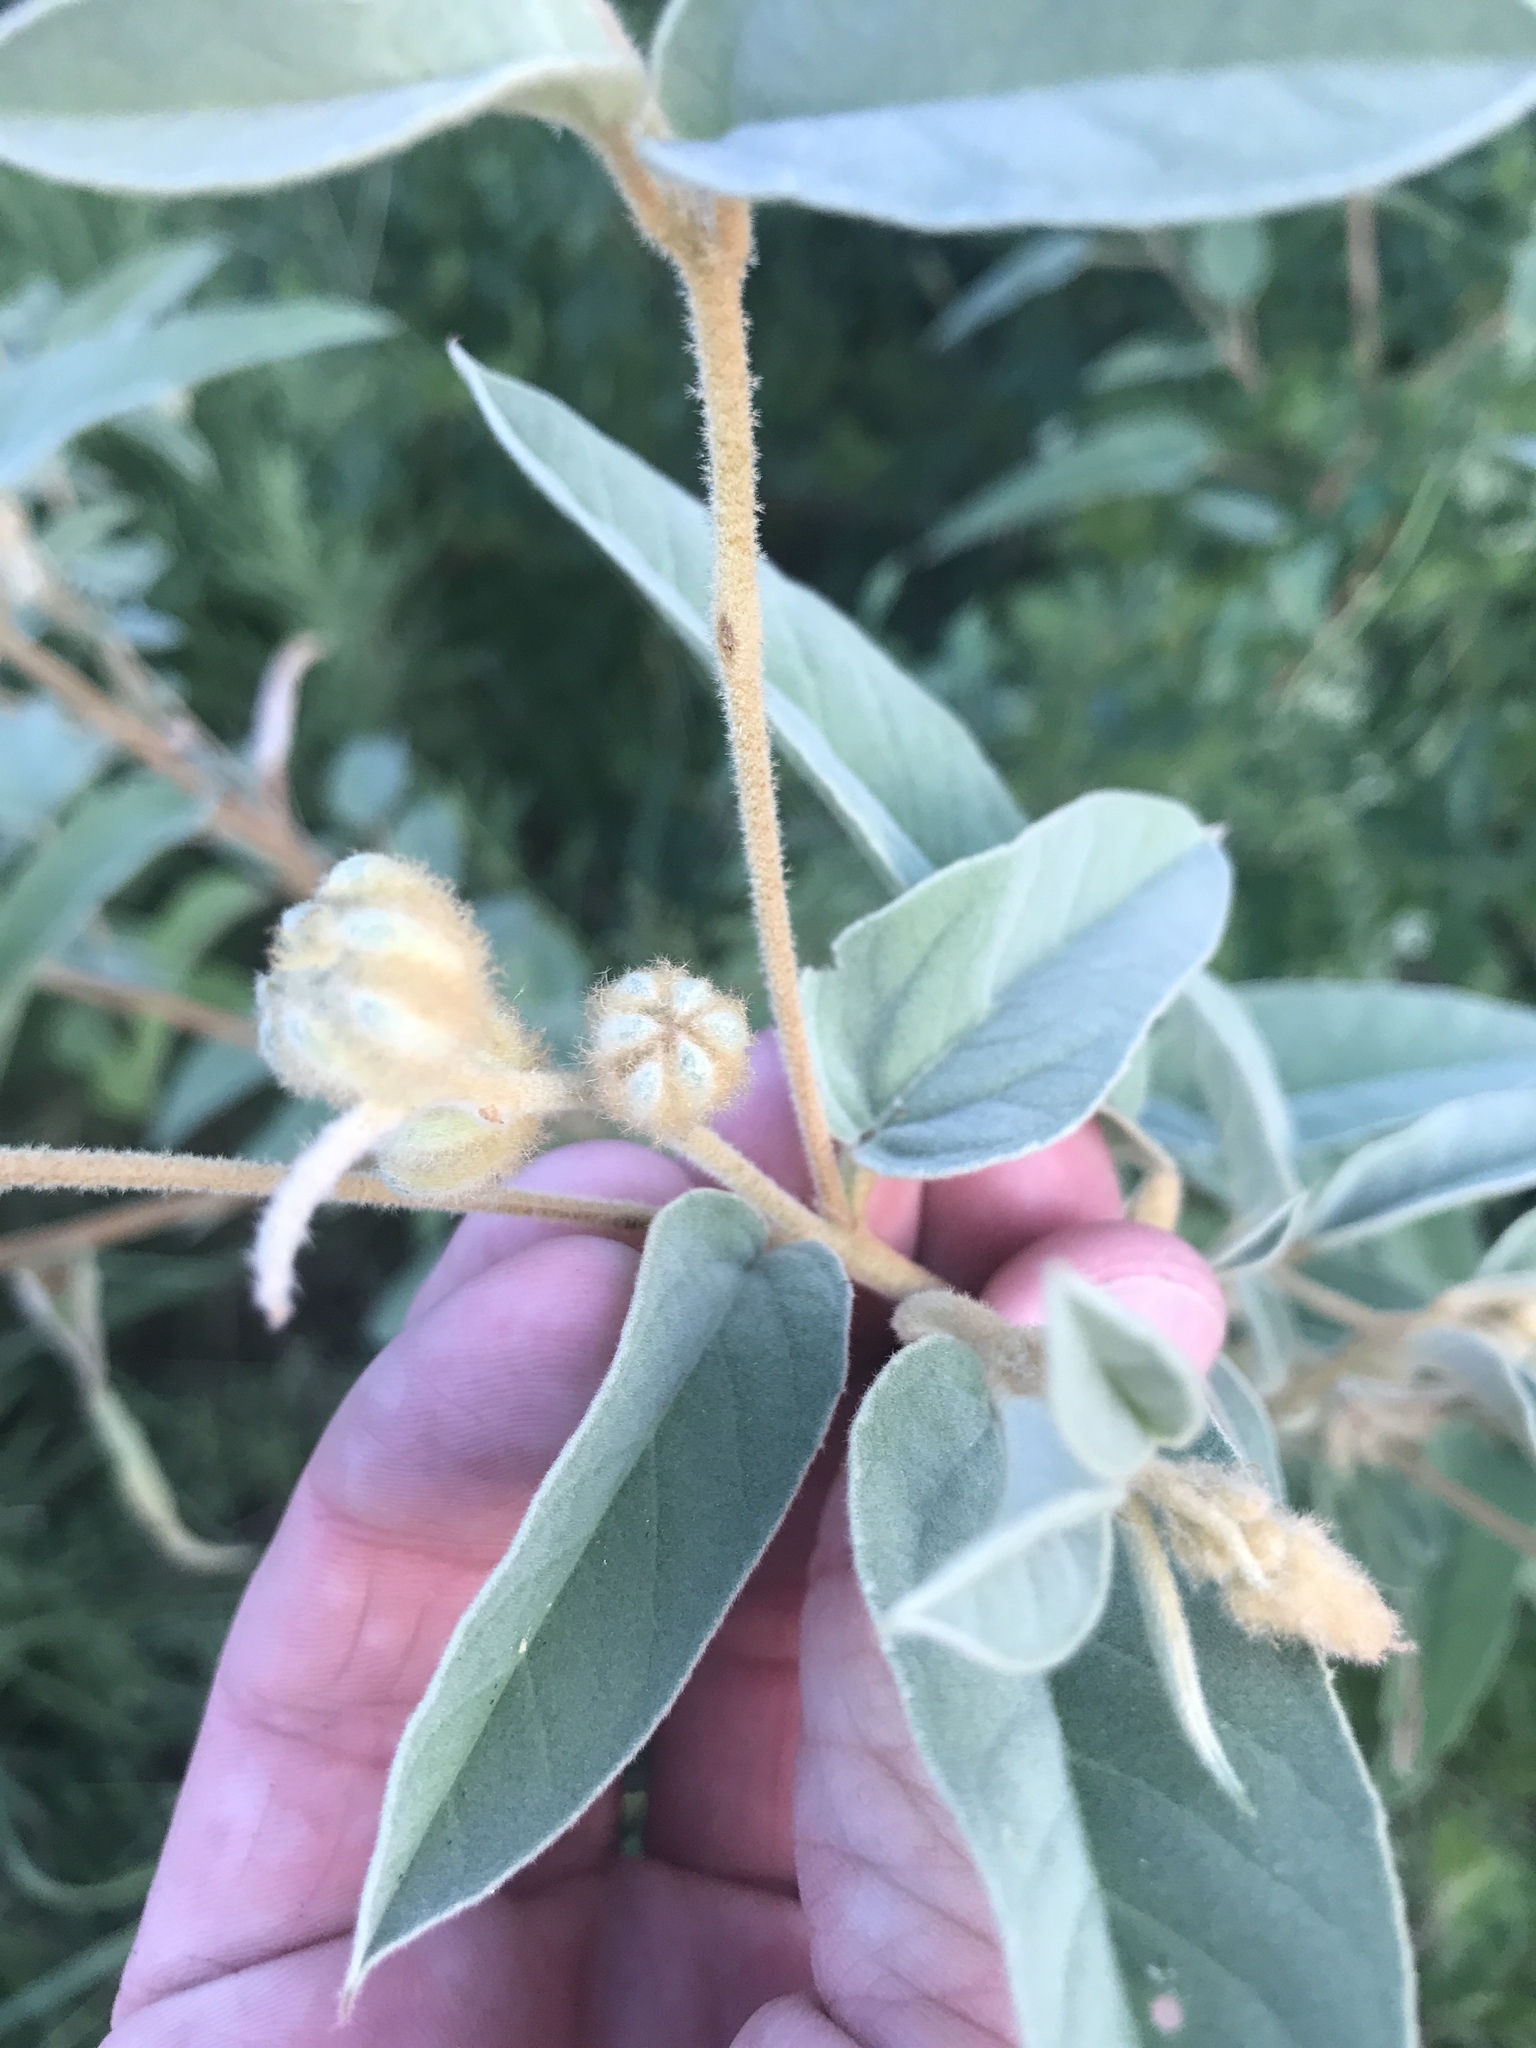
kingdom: Plantae
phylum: Tracheophyta
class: Magnoliopsida
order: Malpighiales
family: Euphorbiaceae
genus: Croton
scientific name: Croton lindheimeri
